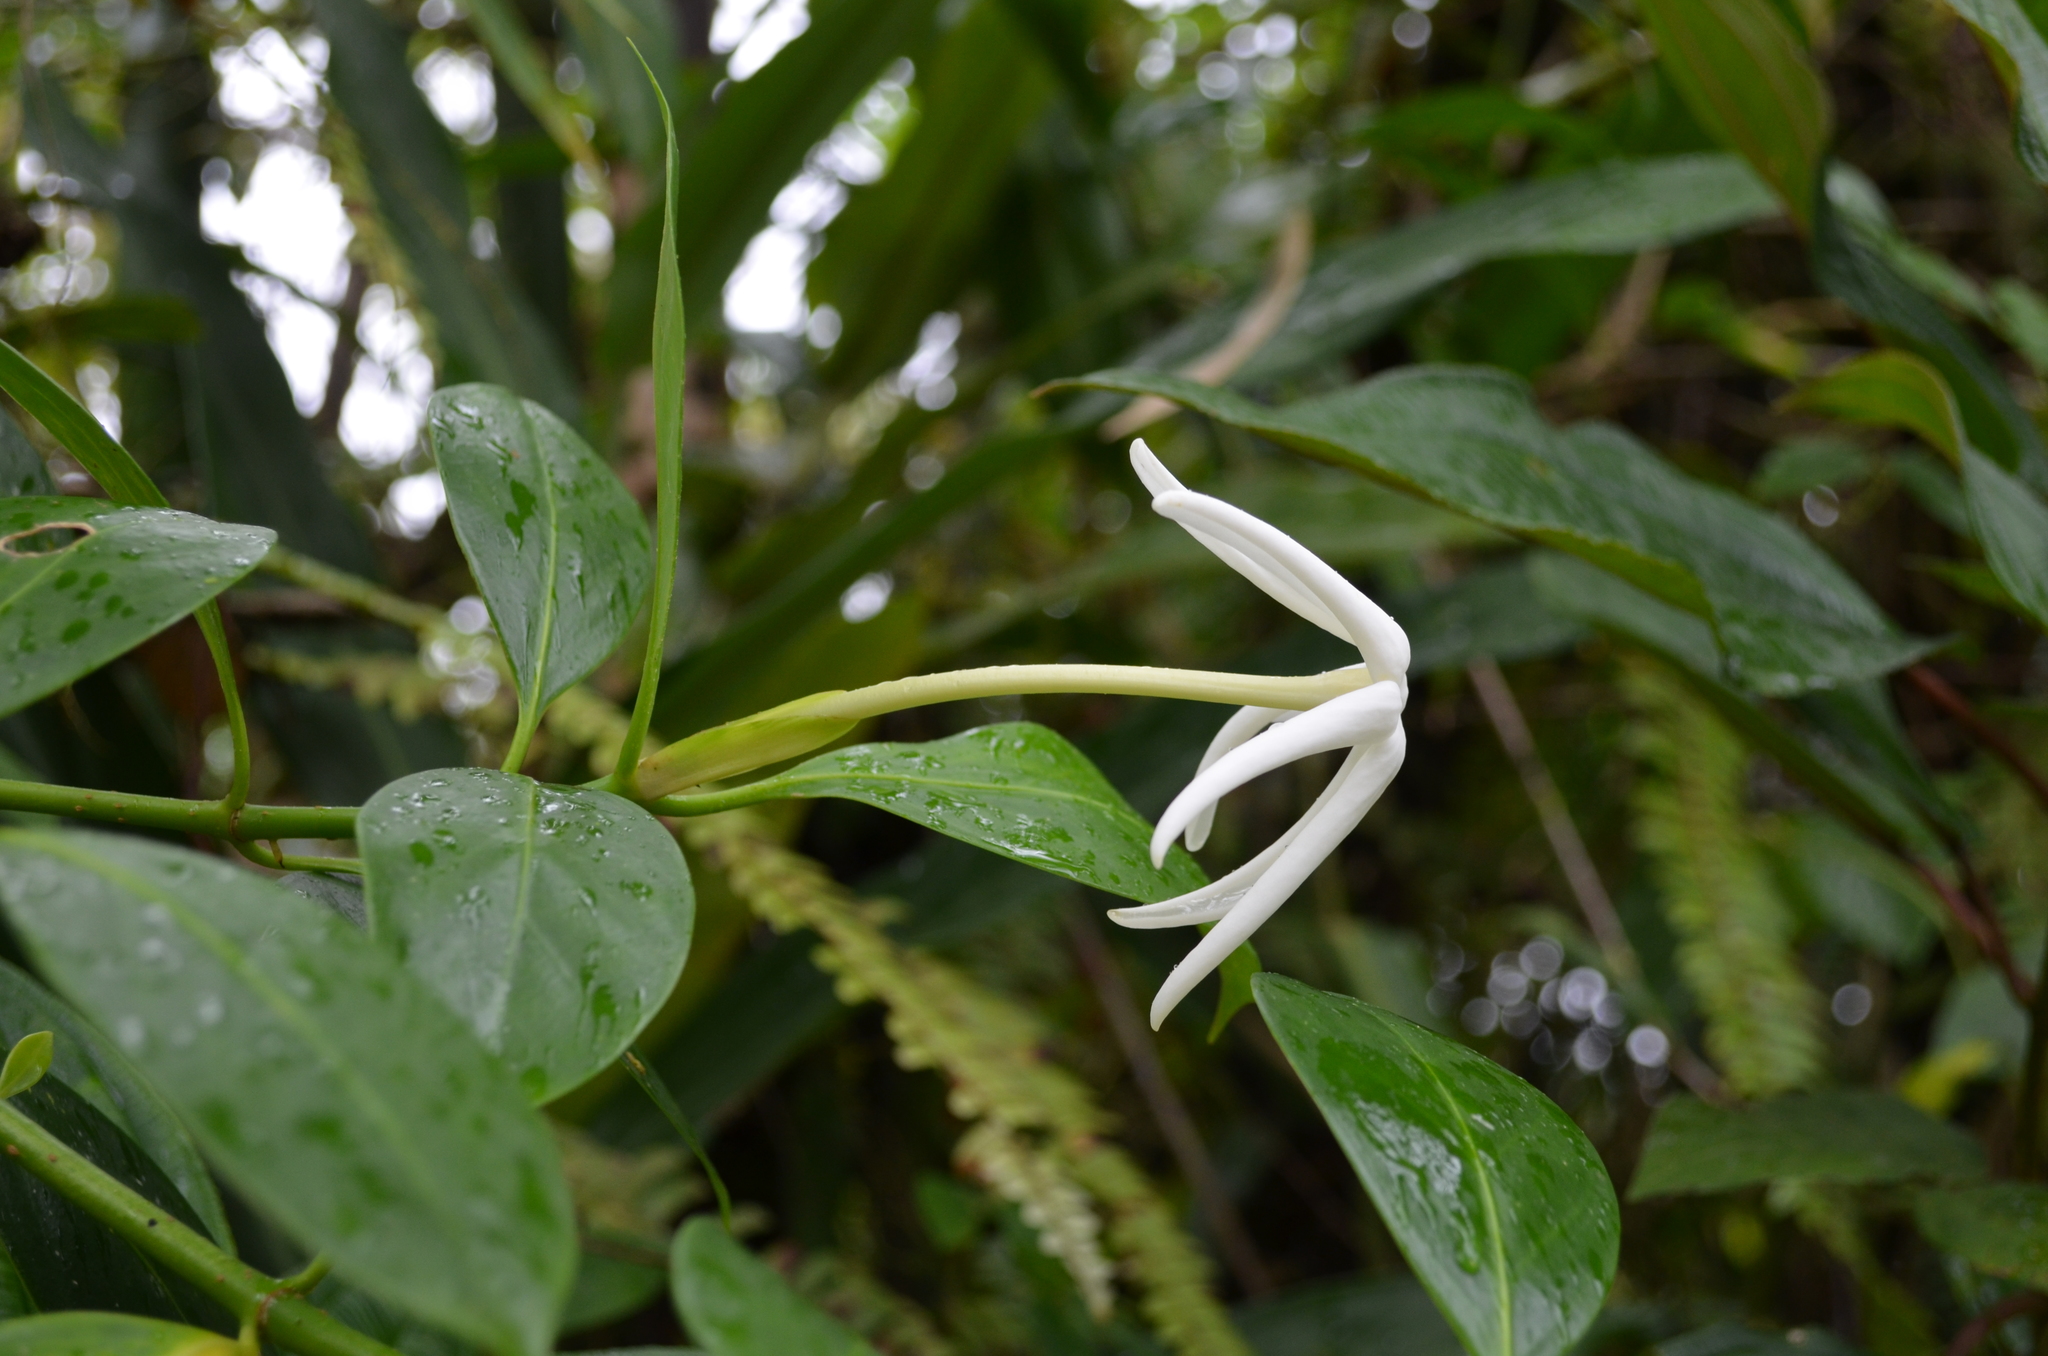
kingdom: Plantae
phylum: Tracheophyta
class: Magnoliopsida
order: Gentianales
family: Rubiaceae
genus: Hillia
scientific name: Hillia parasitica
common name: Morning star
